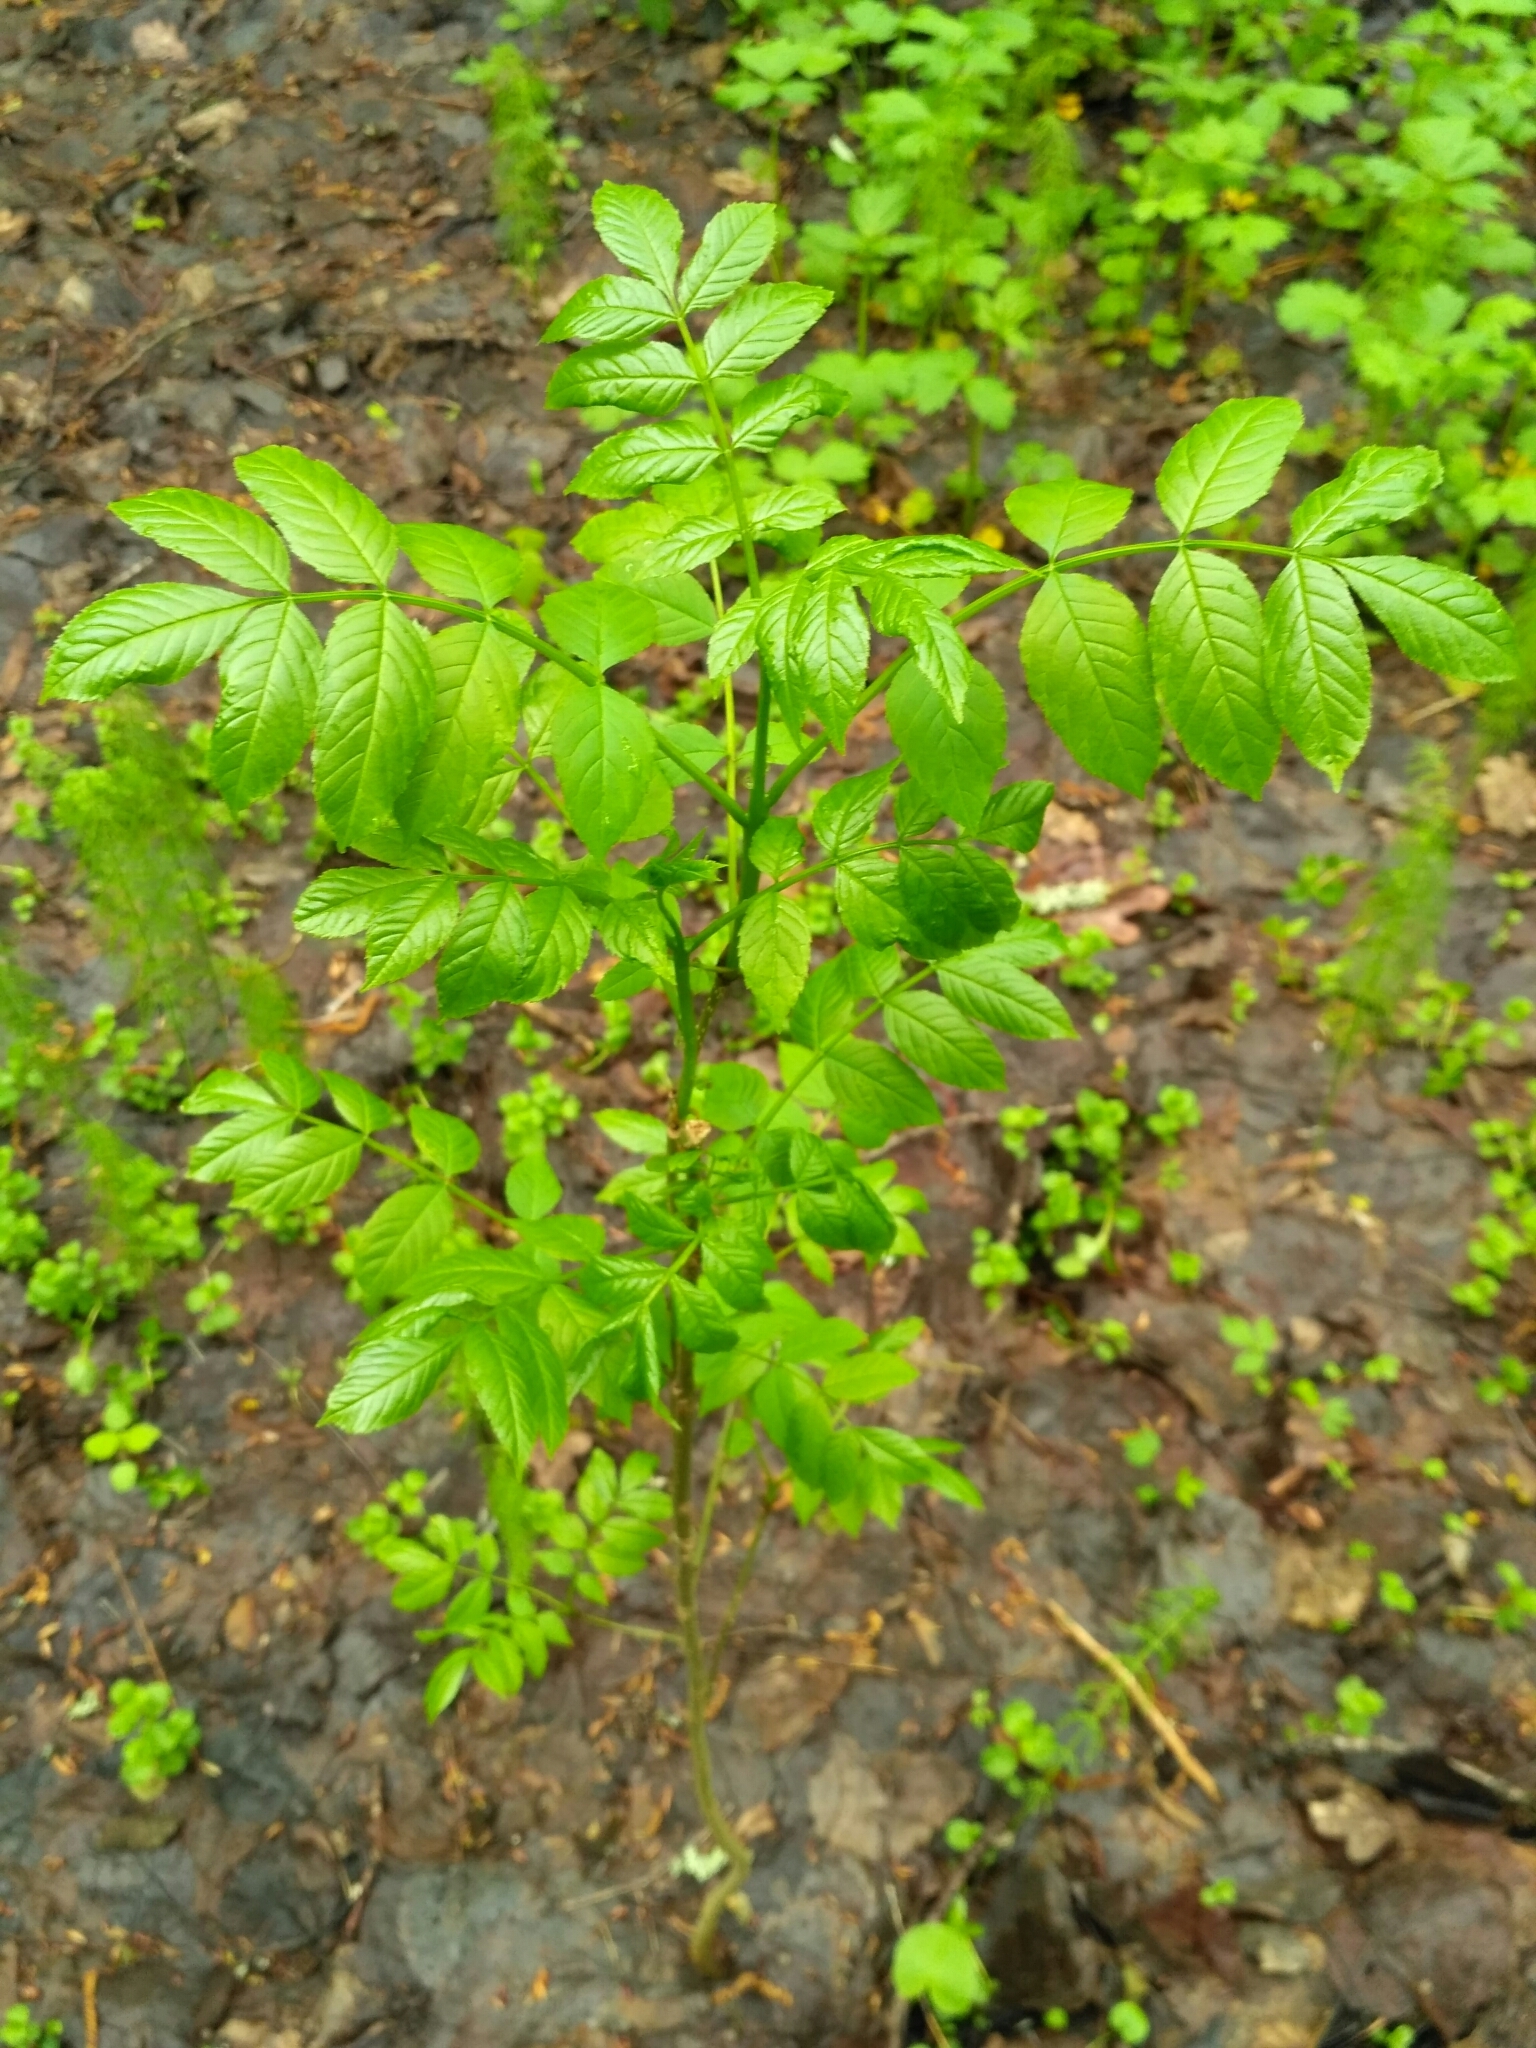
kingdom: Plantae
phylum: Tracheophyta
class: Magnoliopsida
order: Lamiales
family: Oleaceae
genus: Fraxinus
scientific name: Fraxinus excelsior
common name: European ash
